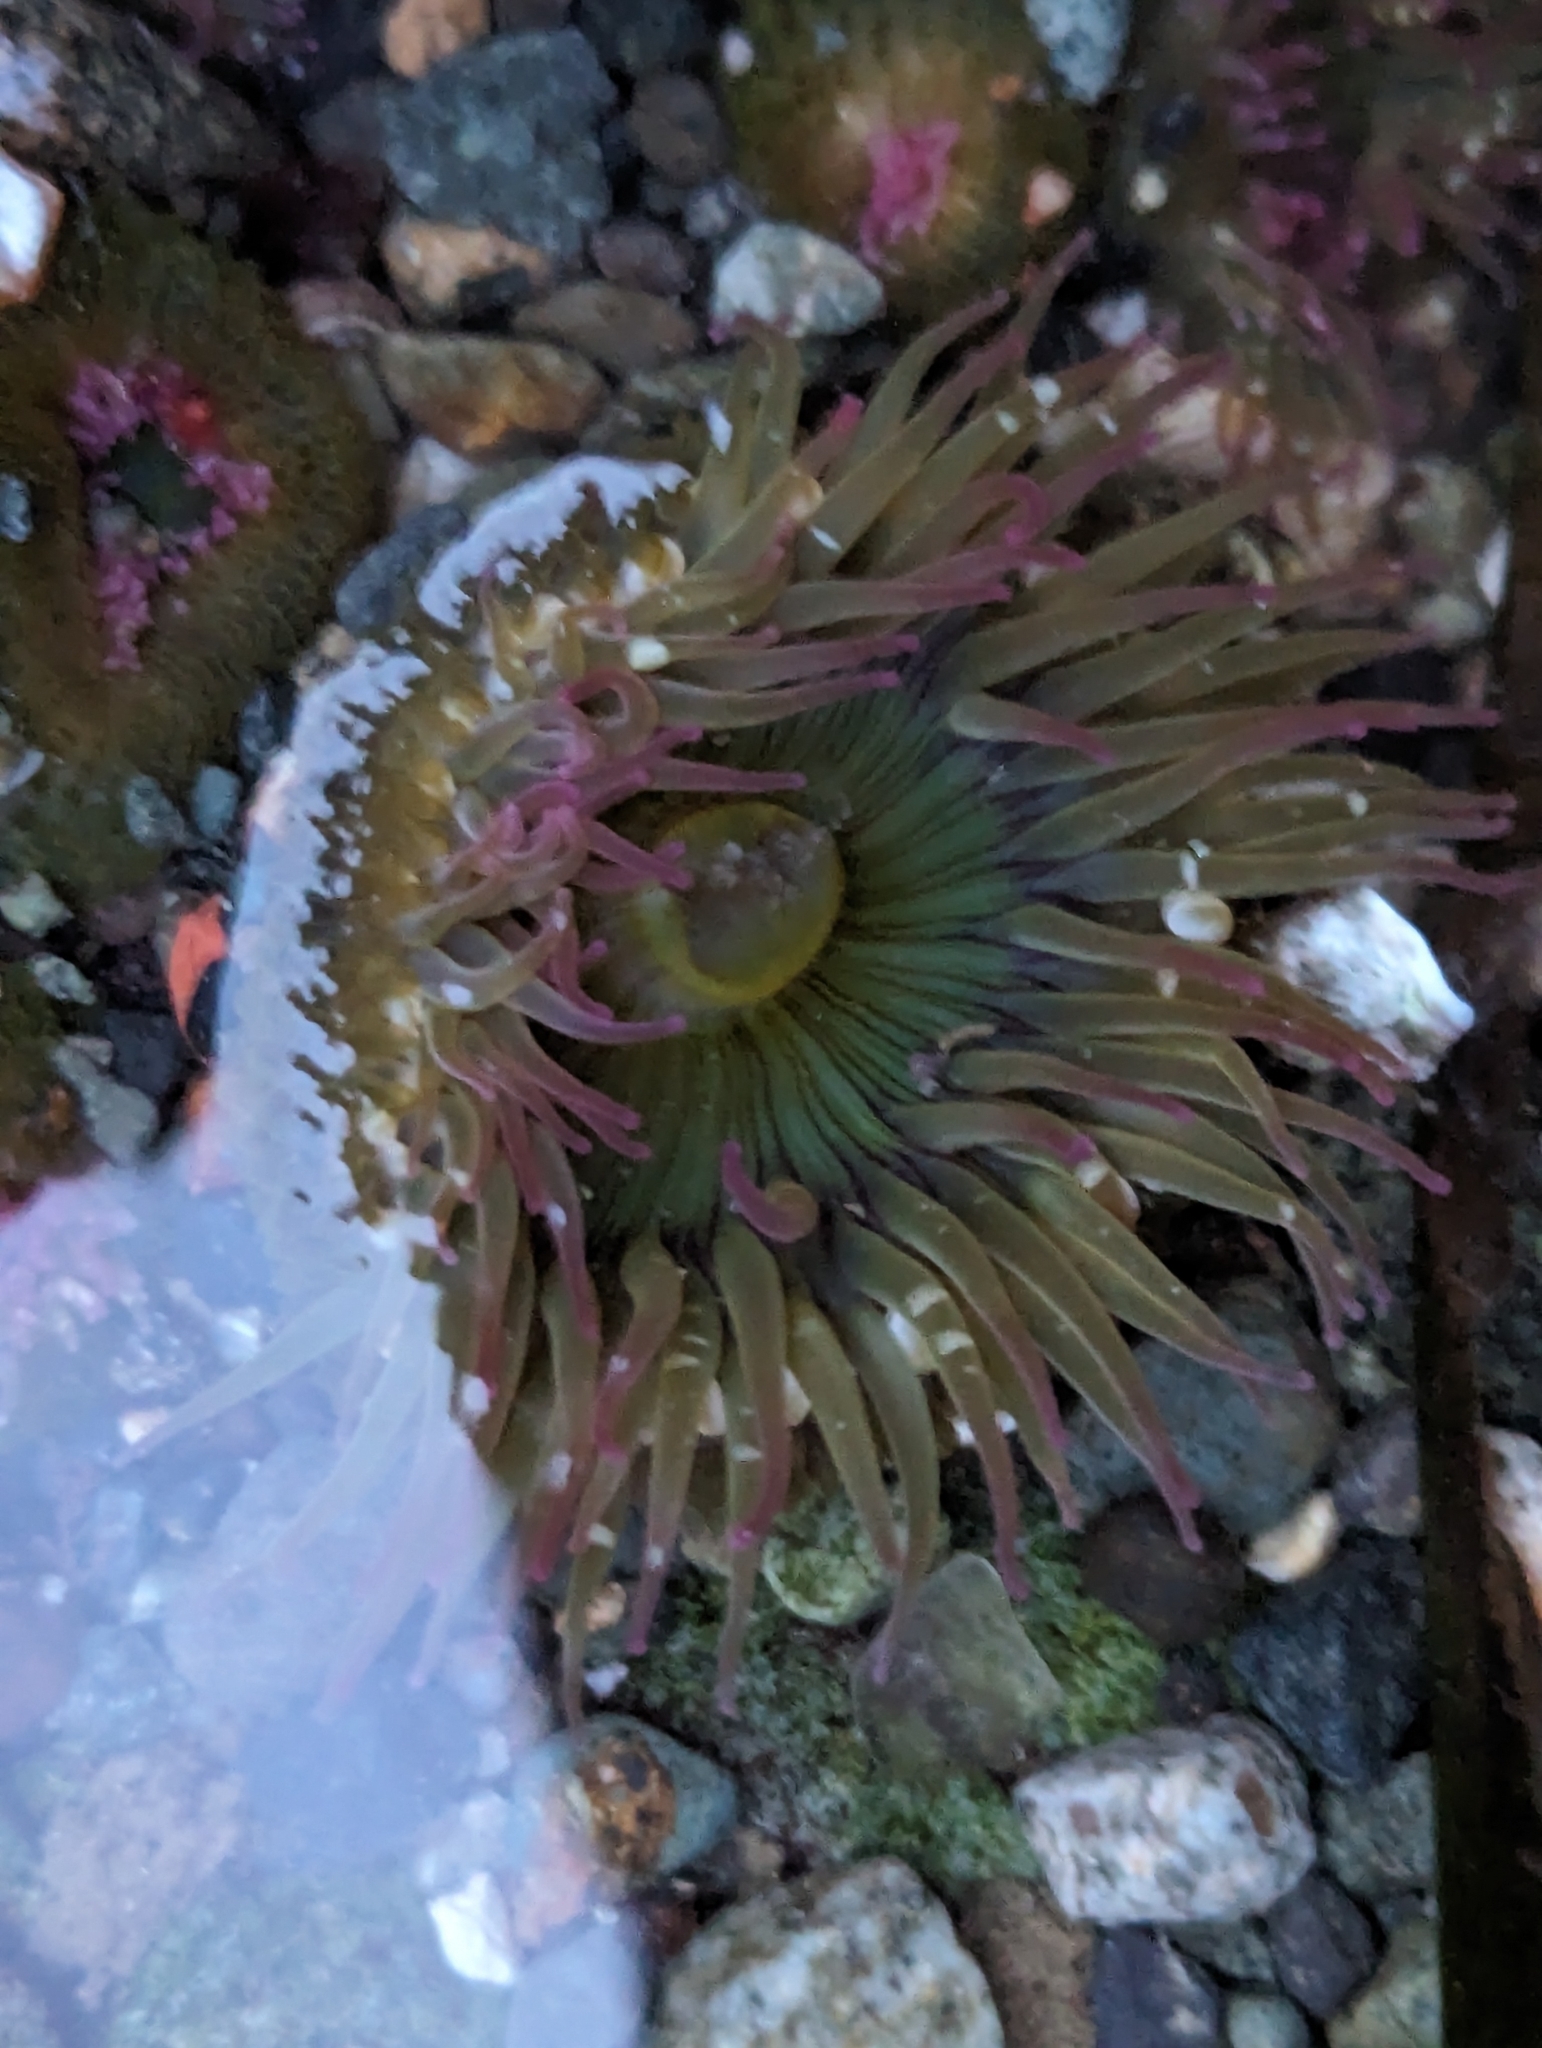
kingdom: Animalia
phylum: Cnidaria
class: Anthozoa
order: Actiniaria
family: Actiniidae
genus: Anthopleura
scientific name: Anthopleura elegantissima
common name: Clonal anemone
